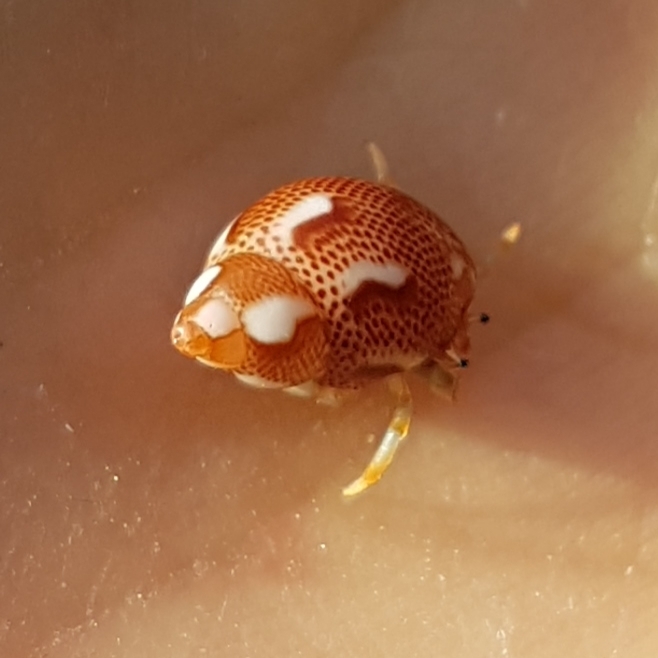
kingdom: Animalia
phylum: Mollusca
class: Gastropoda
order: Trochida
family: Phasianellidae
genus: Tricolia
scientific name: Tricolia pullus
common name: Pheasant shell
